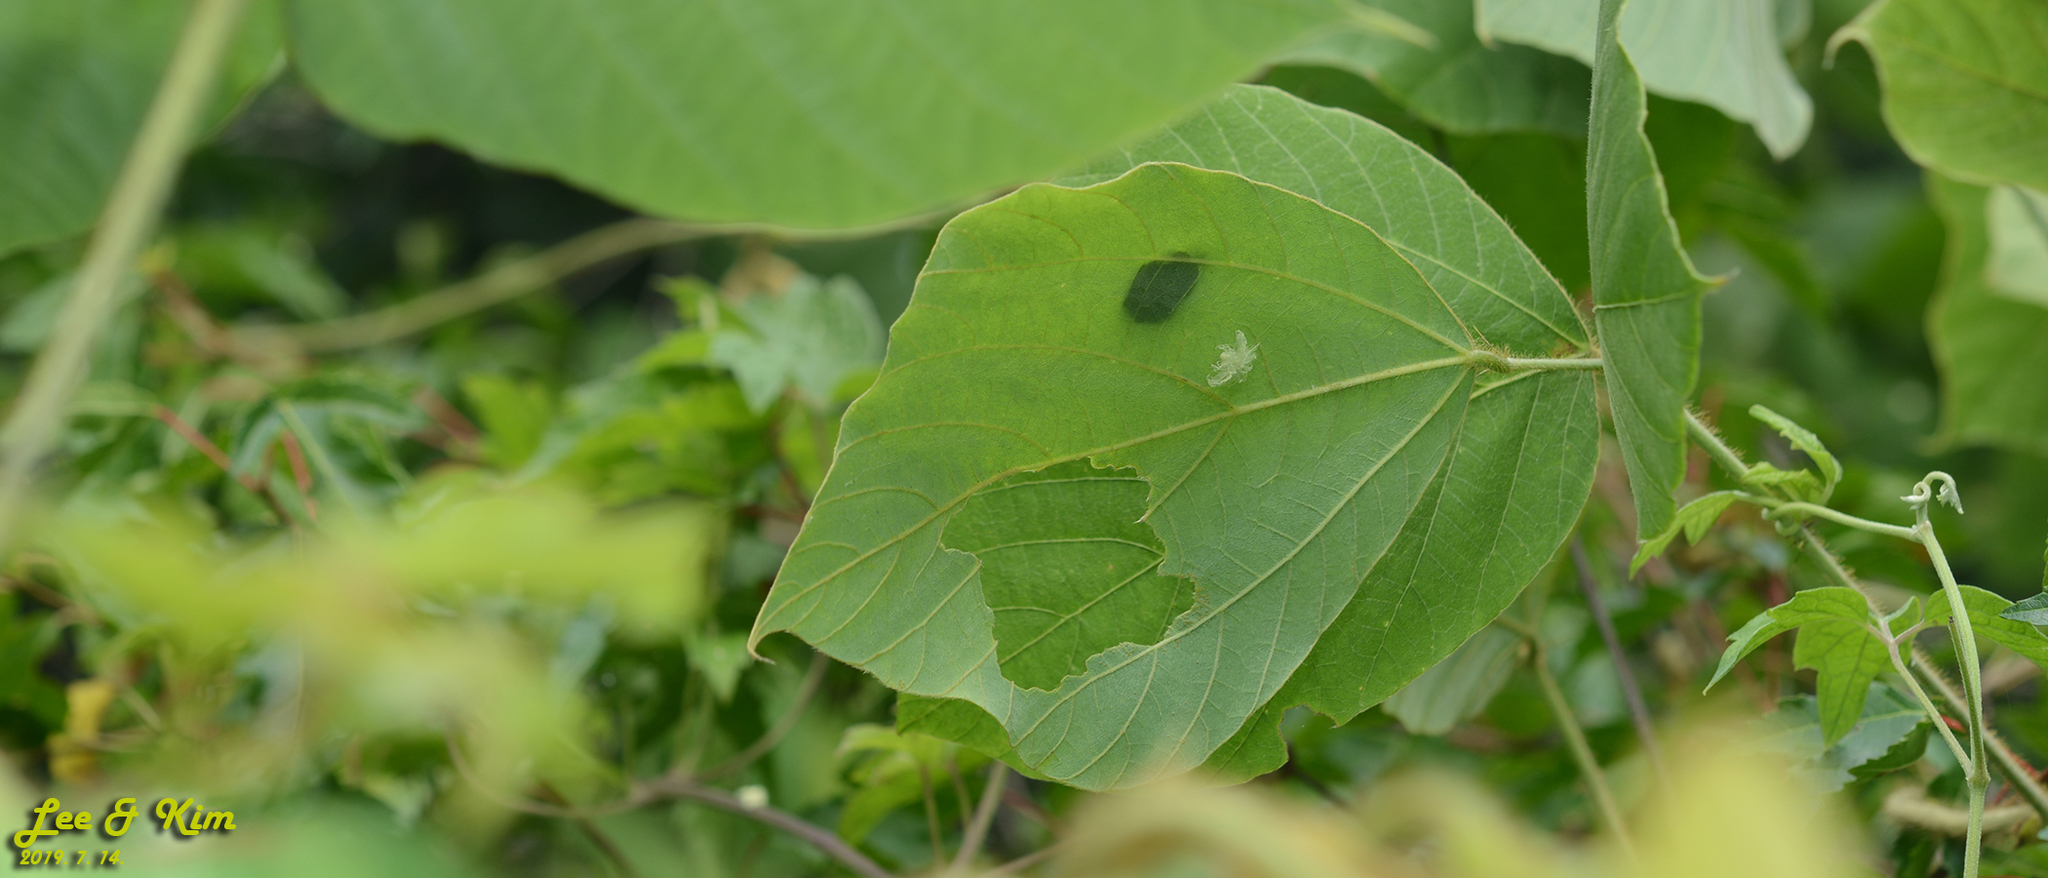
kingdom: Animalia
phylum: Chordata
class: Amphibia
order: Anura
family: Hylidae
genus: Dryophytes
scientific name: Dryophytes japonicus
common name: Japanese treefrog
